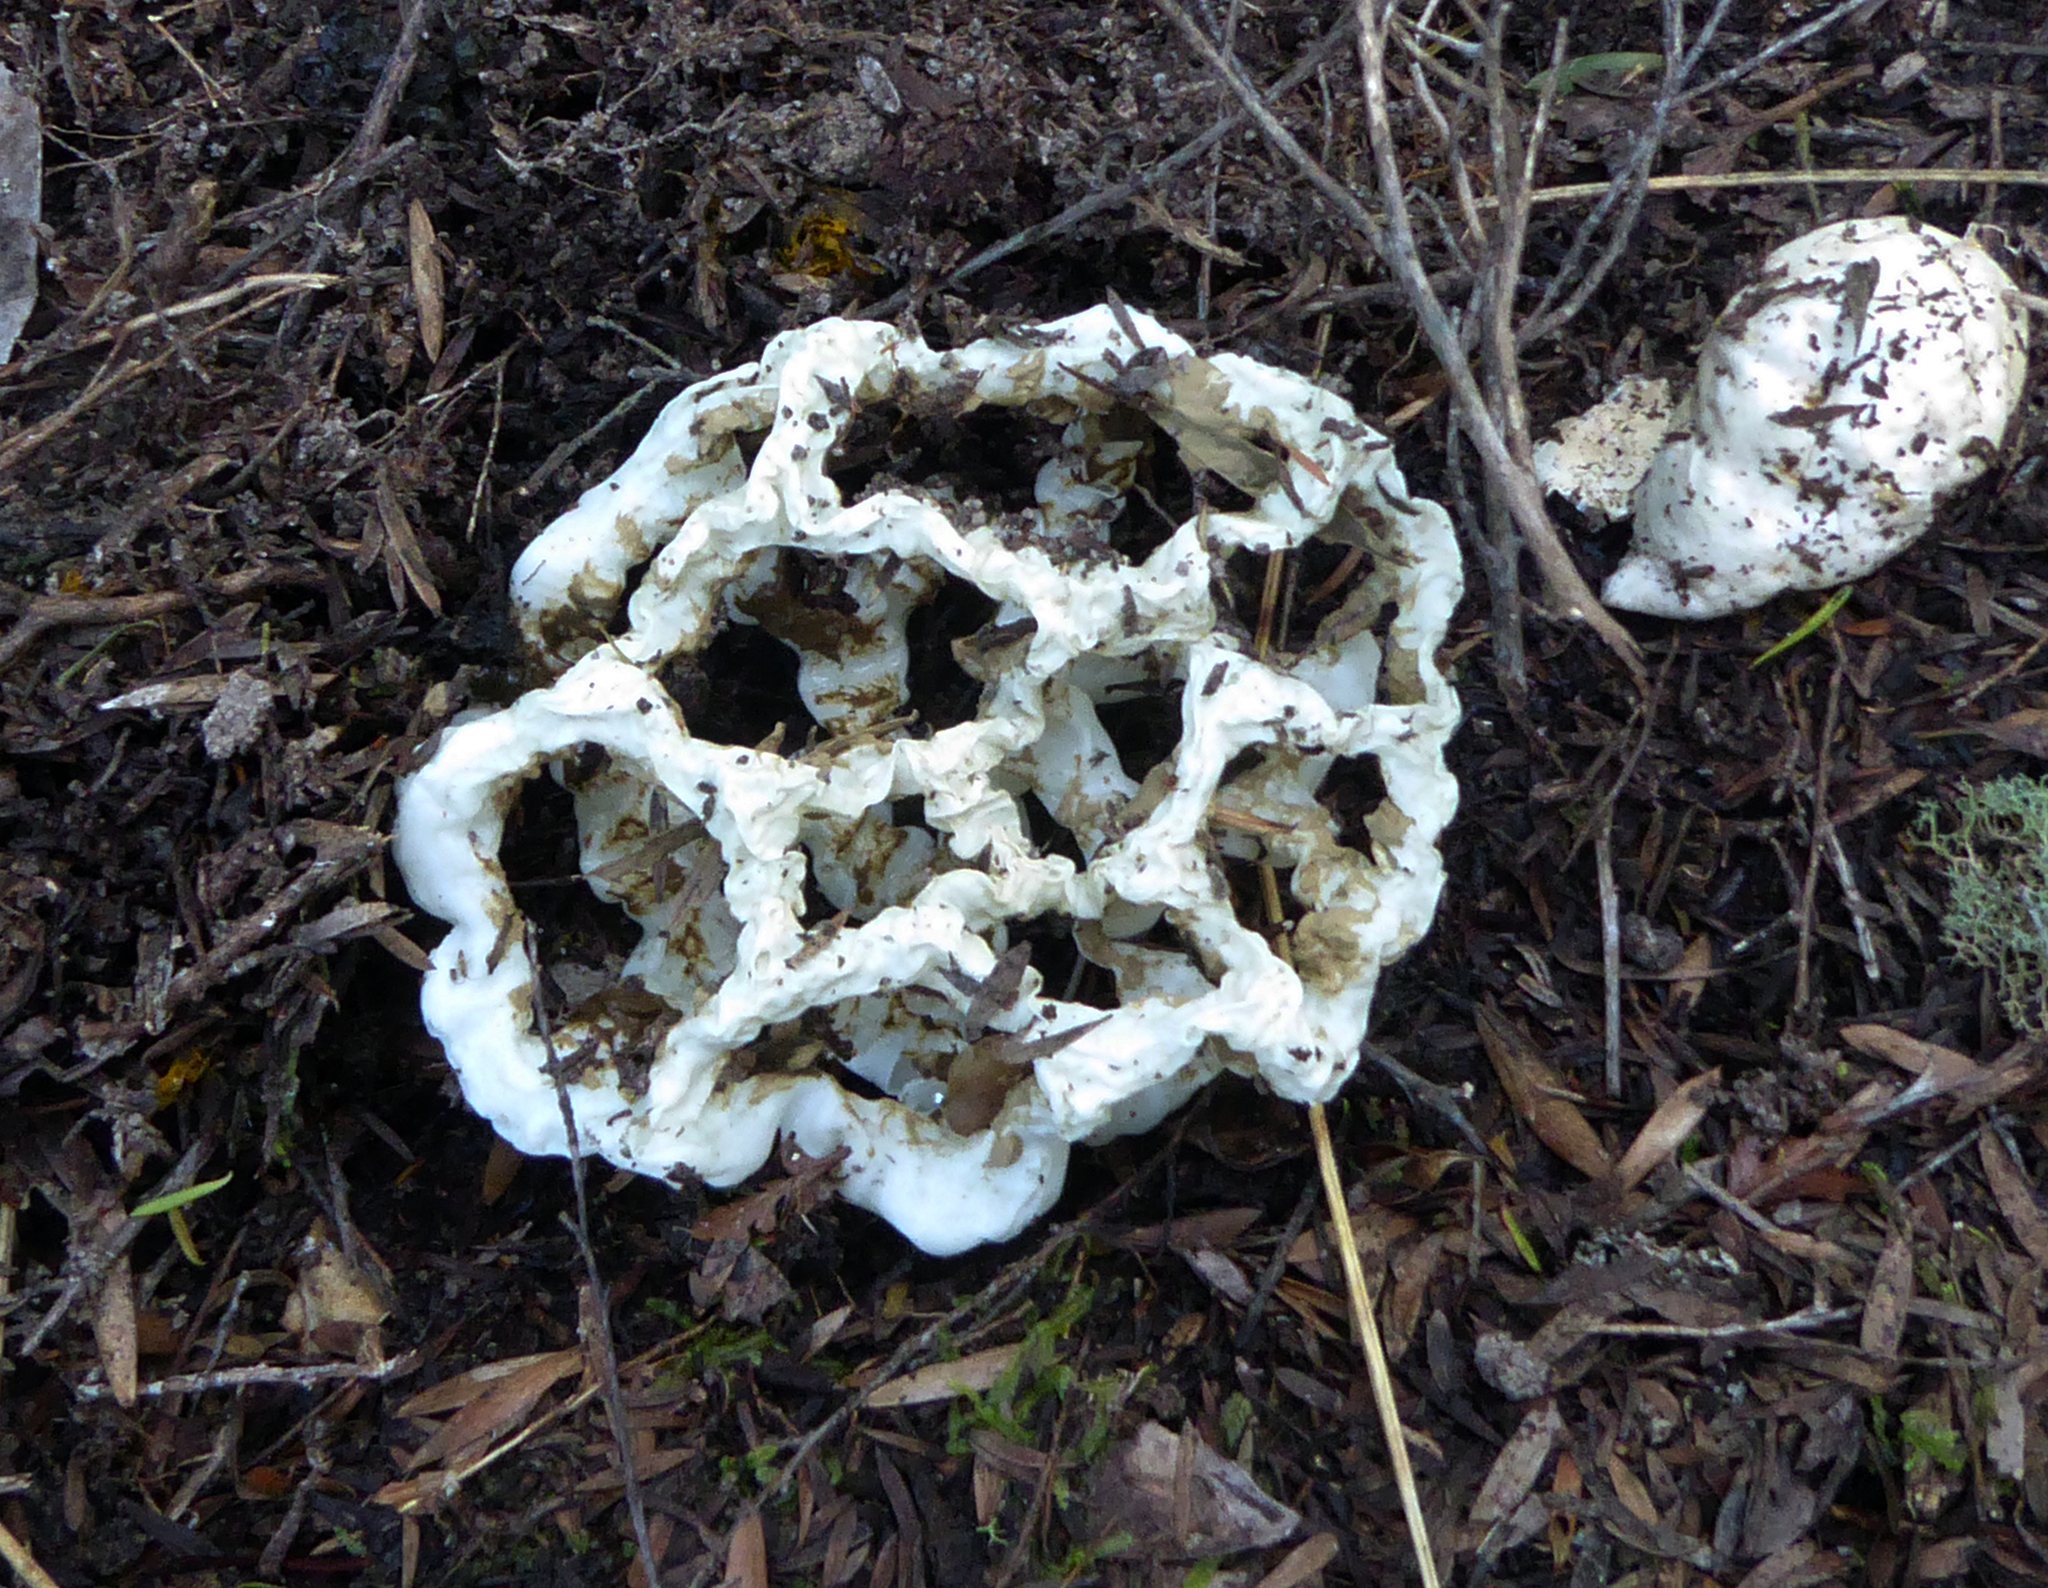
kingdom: Fungi
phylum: Basidiomycota
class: Agaricomycetes
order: Phallales
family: Phallaceae
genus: Ileodictyon
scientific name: Ileodictyon cibarium
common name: Basket fungus
